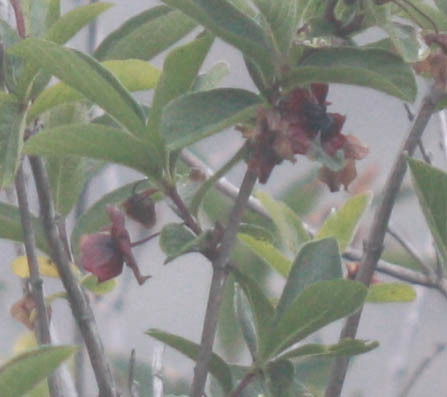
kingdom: Plantae
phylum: Tracheophyta
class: Magnoliopsida
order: Dipsacales
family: Caprifoliaceae
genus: Lonicera
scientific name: Lonicera involucrata
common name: Californian honeysuckle
